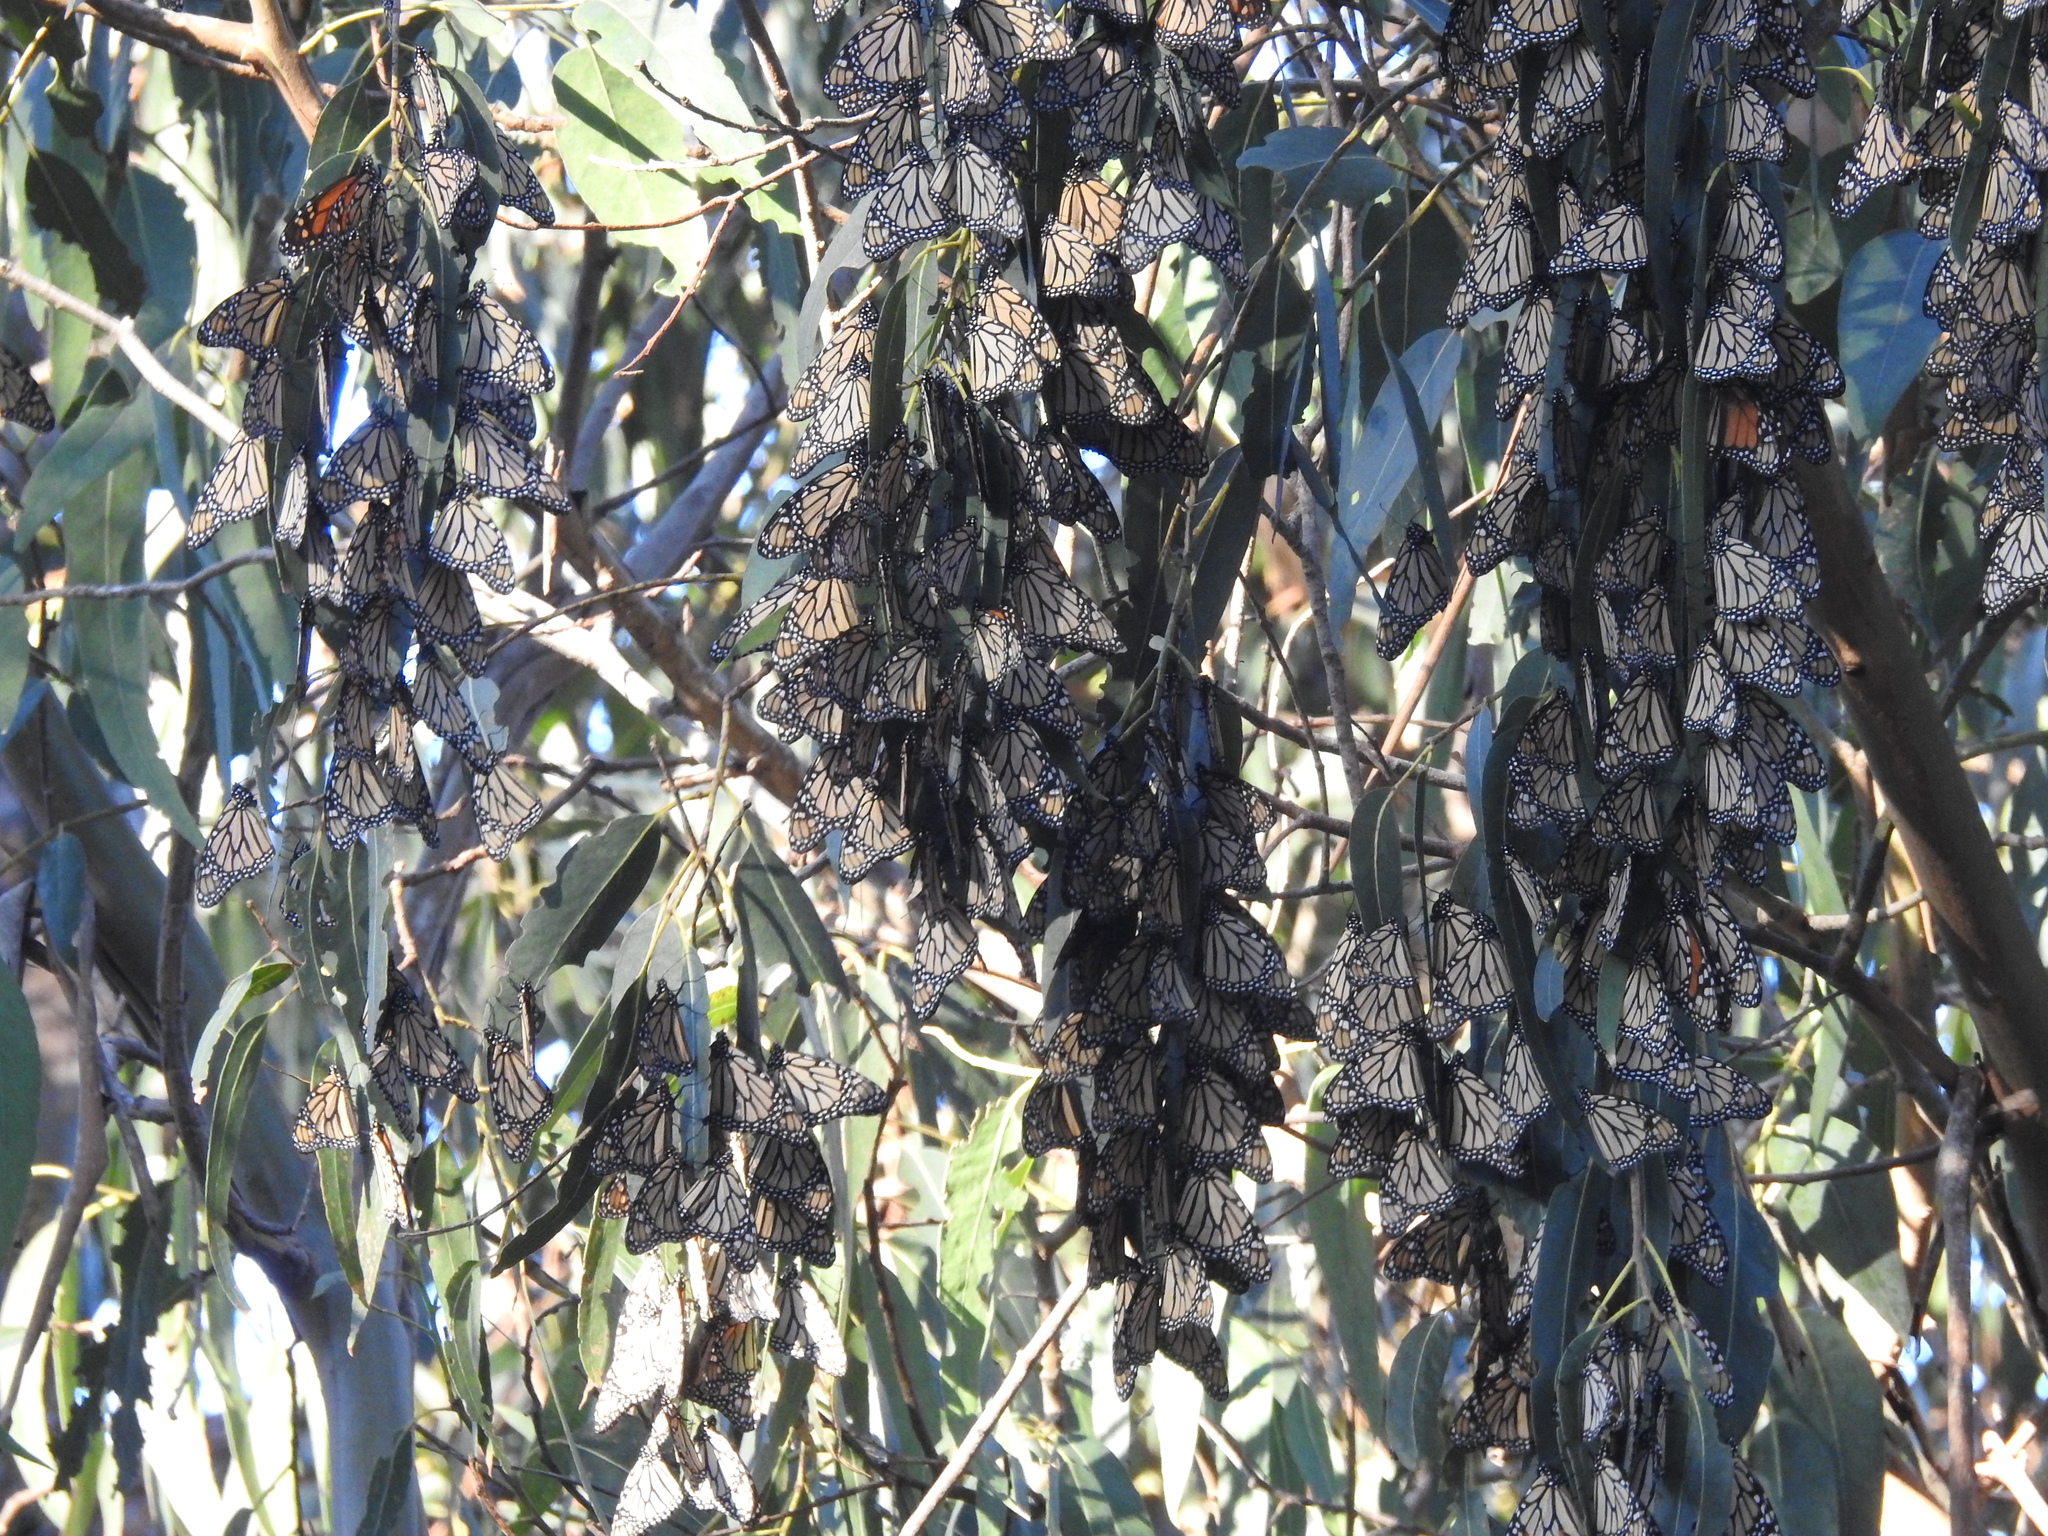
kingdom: Animalia
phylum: Arthropoda
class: Insecta
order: Lepidoptera
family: Nymphalidae
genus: Danaus
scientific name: Danaus plexippus
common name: Monarch
